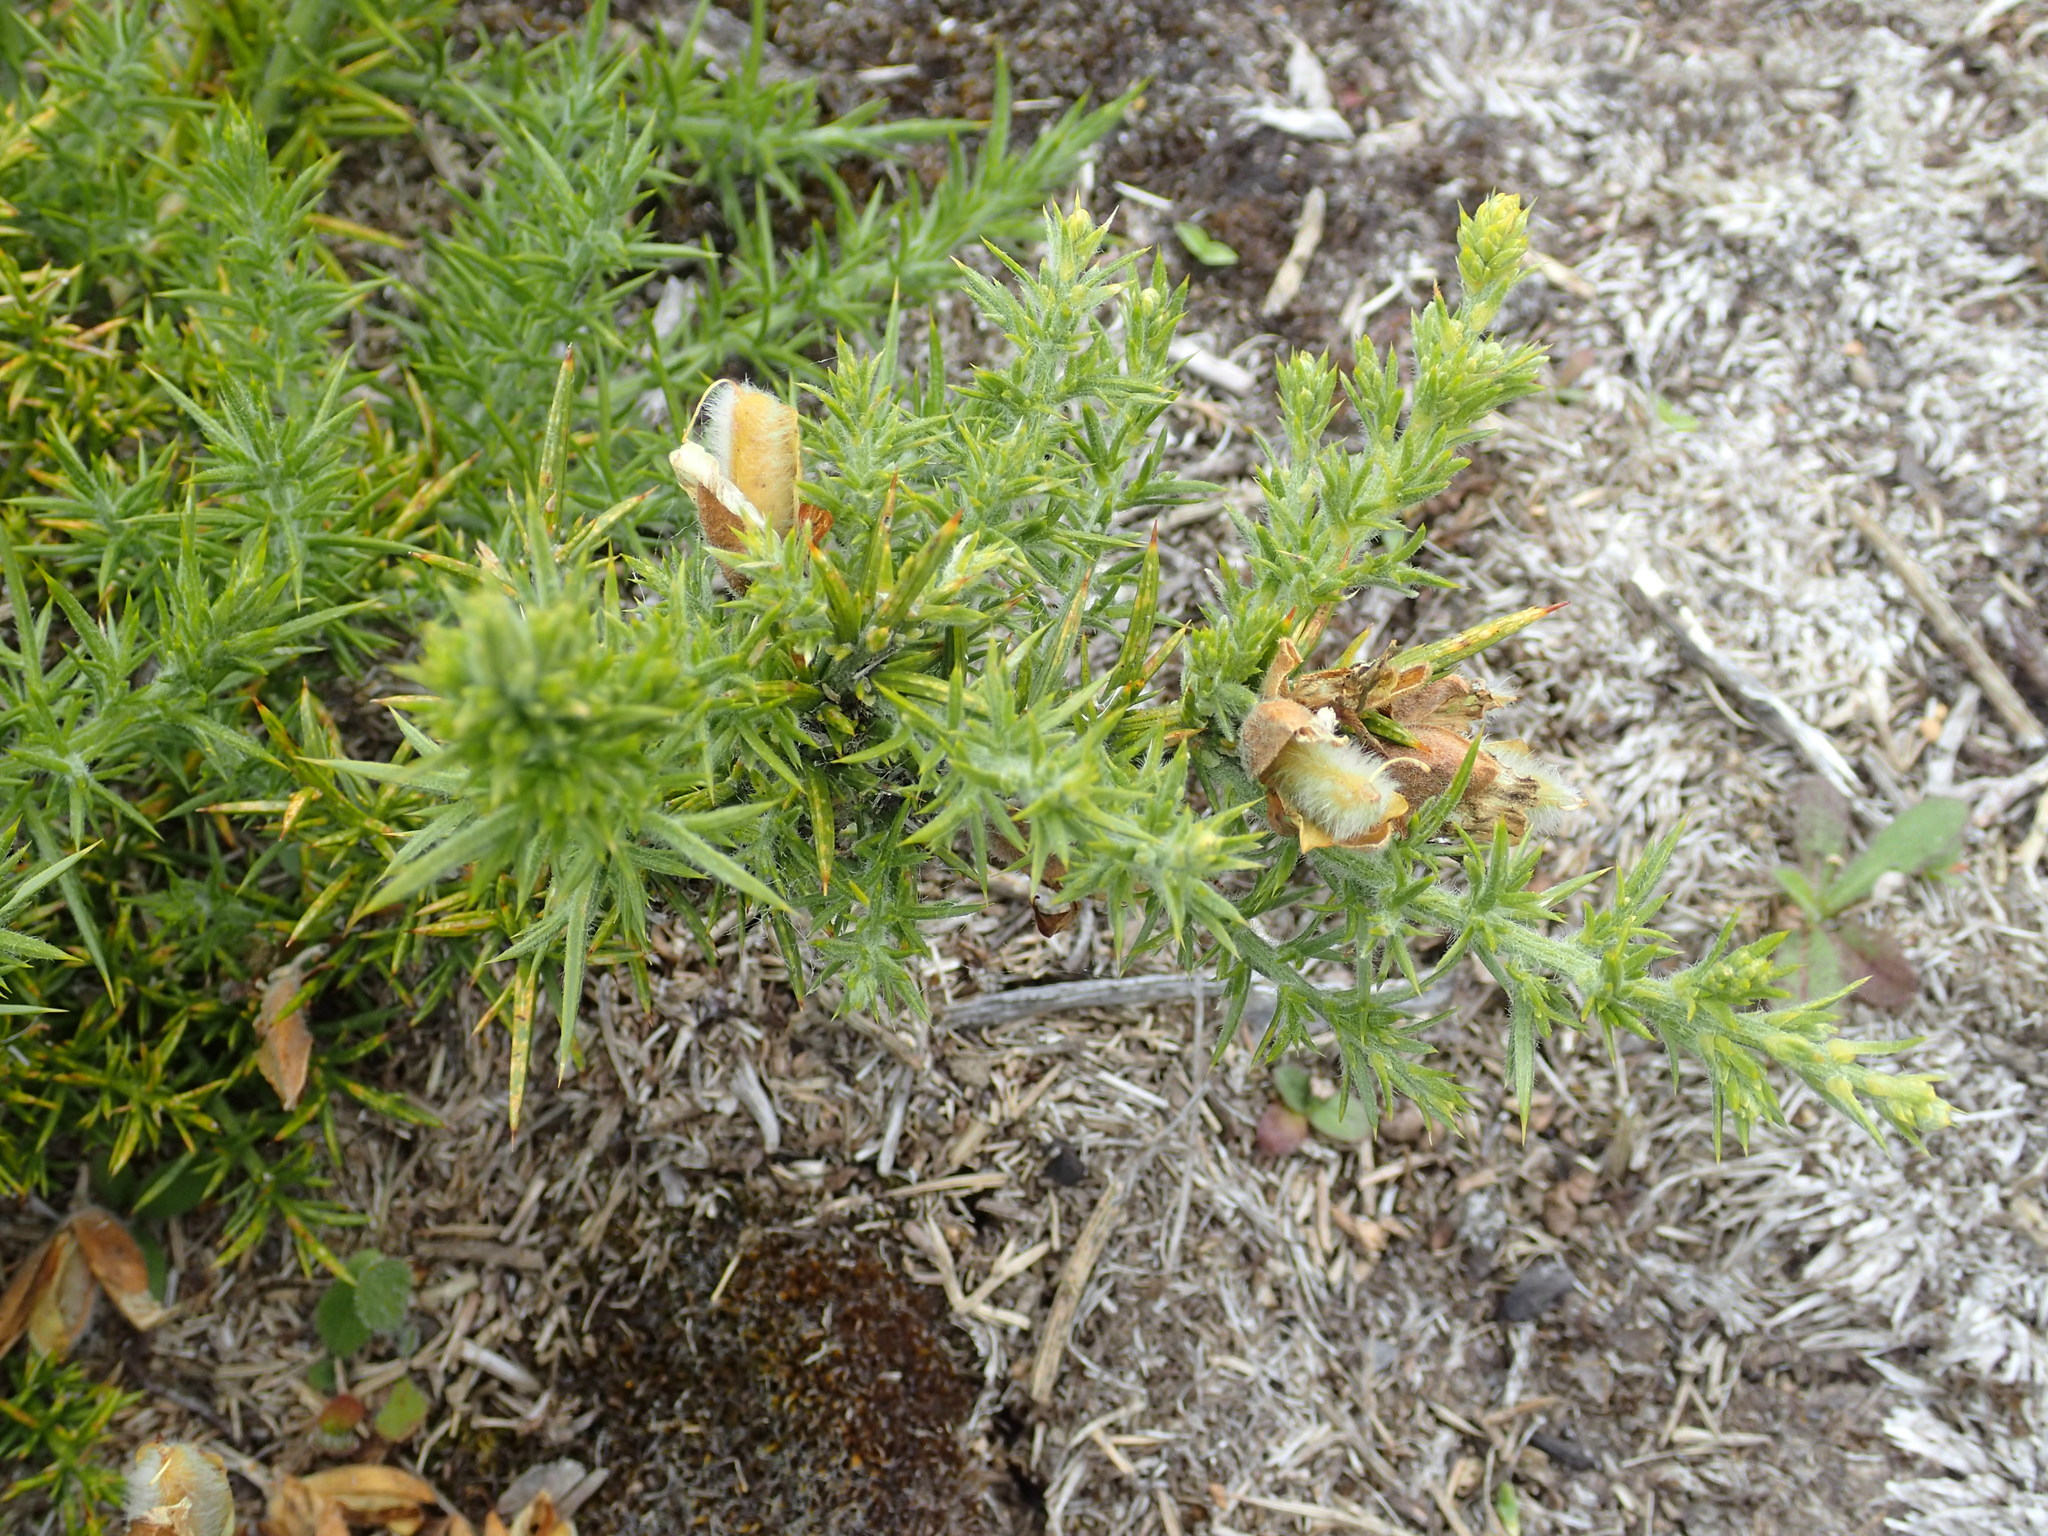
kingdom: Plantae
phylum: Tracheophyta
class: Magnoliopsida
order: Fabales
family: Fabaceae
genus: Ulex
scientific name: Ulex europaeus
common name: Common gorse
